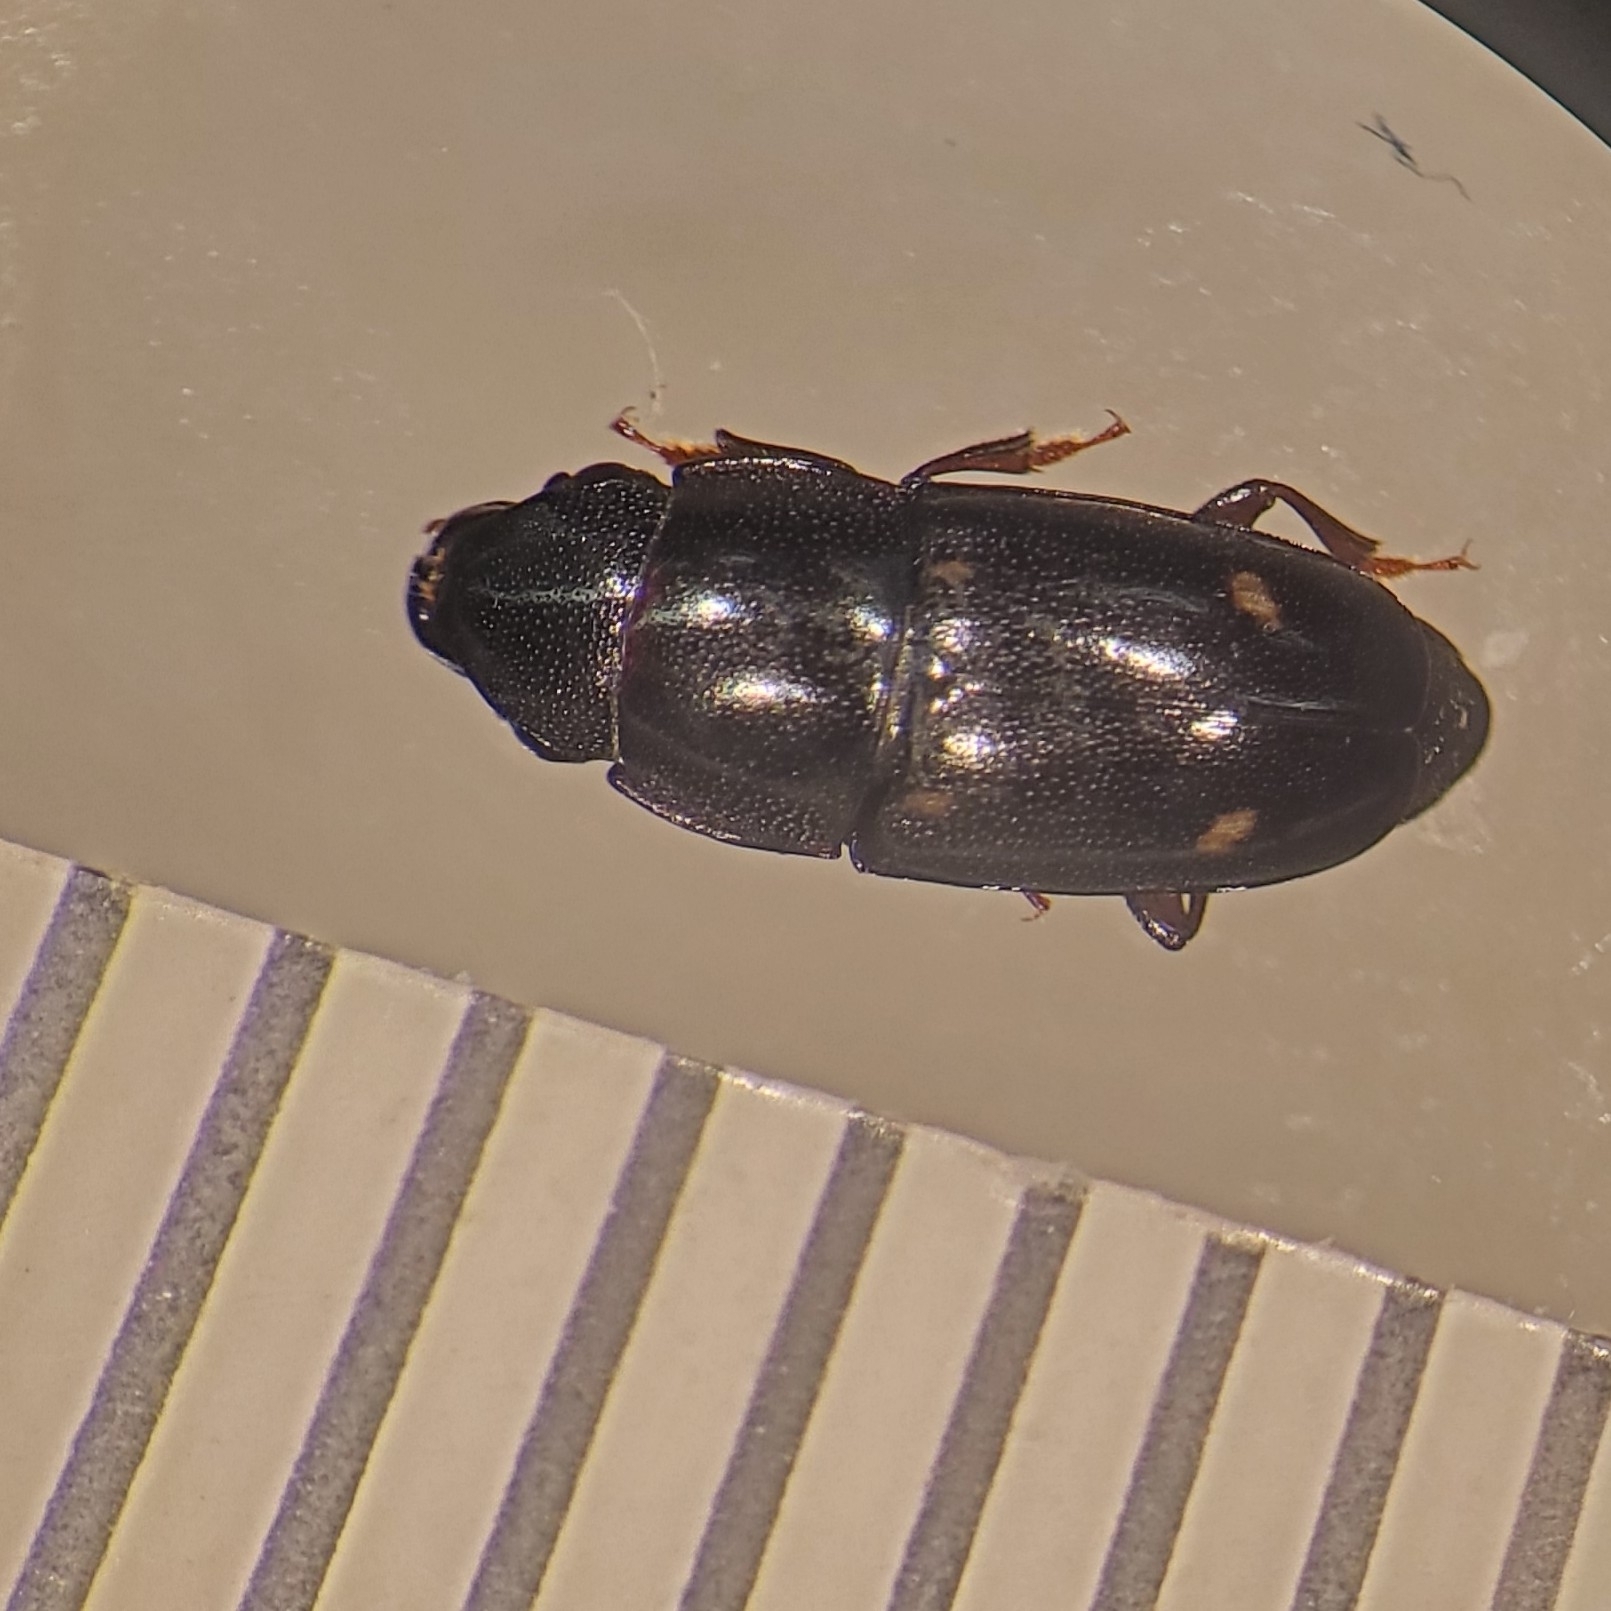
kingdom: Animalia
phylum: Arthropoda
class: Insecta
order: Coleoptera
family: Nitidulidae
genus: Glischrochilus
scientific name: Glischrochilus siepmanni
